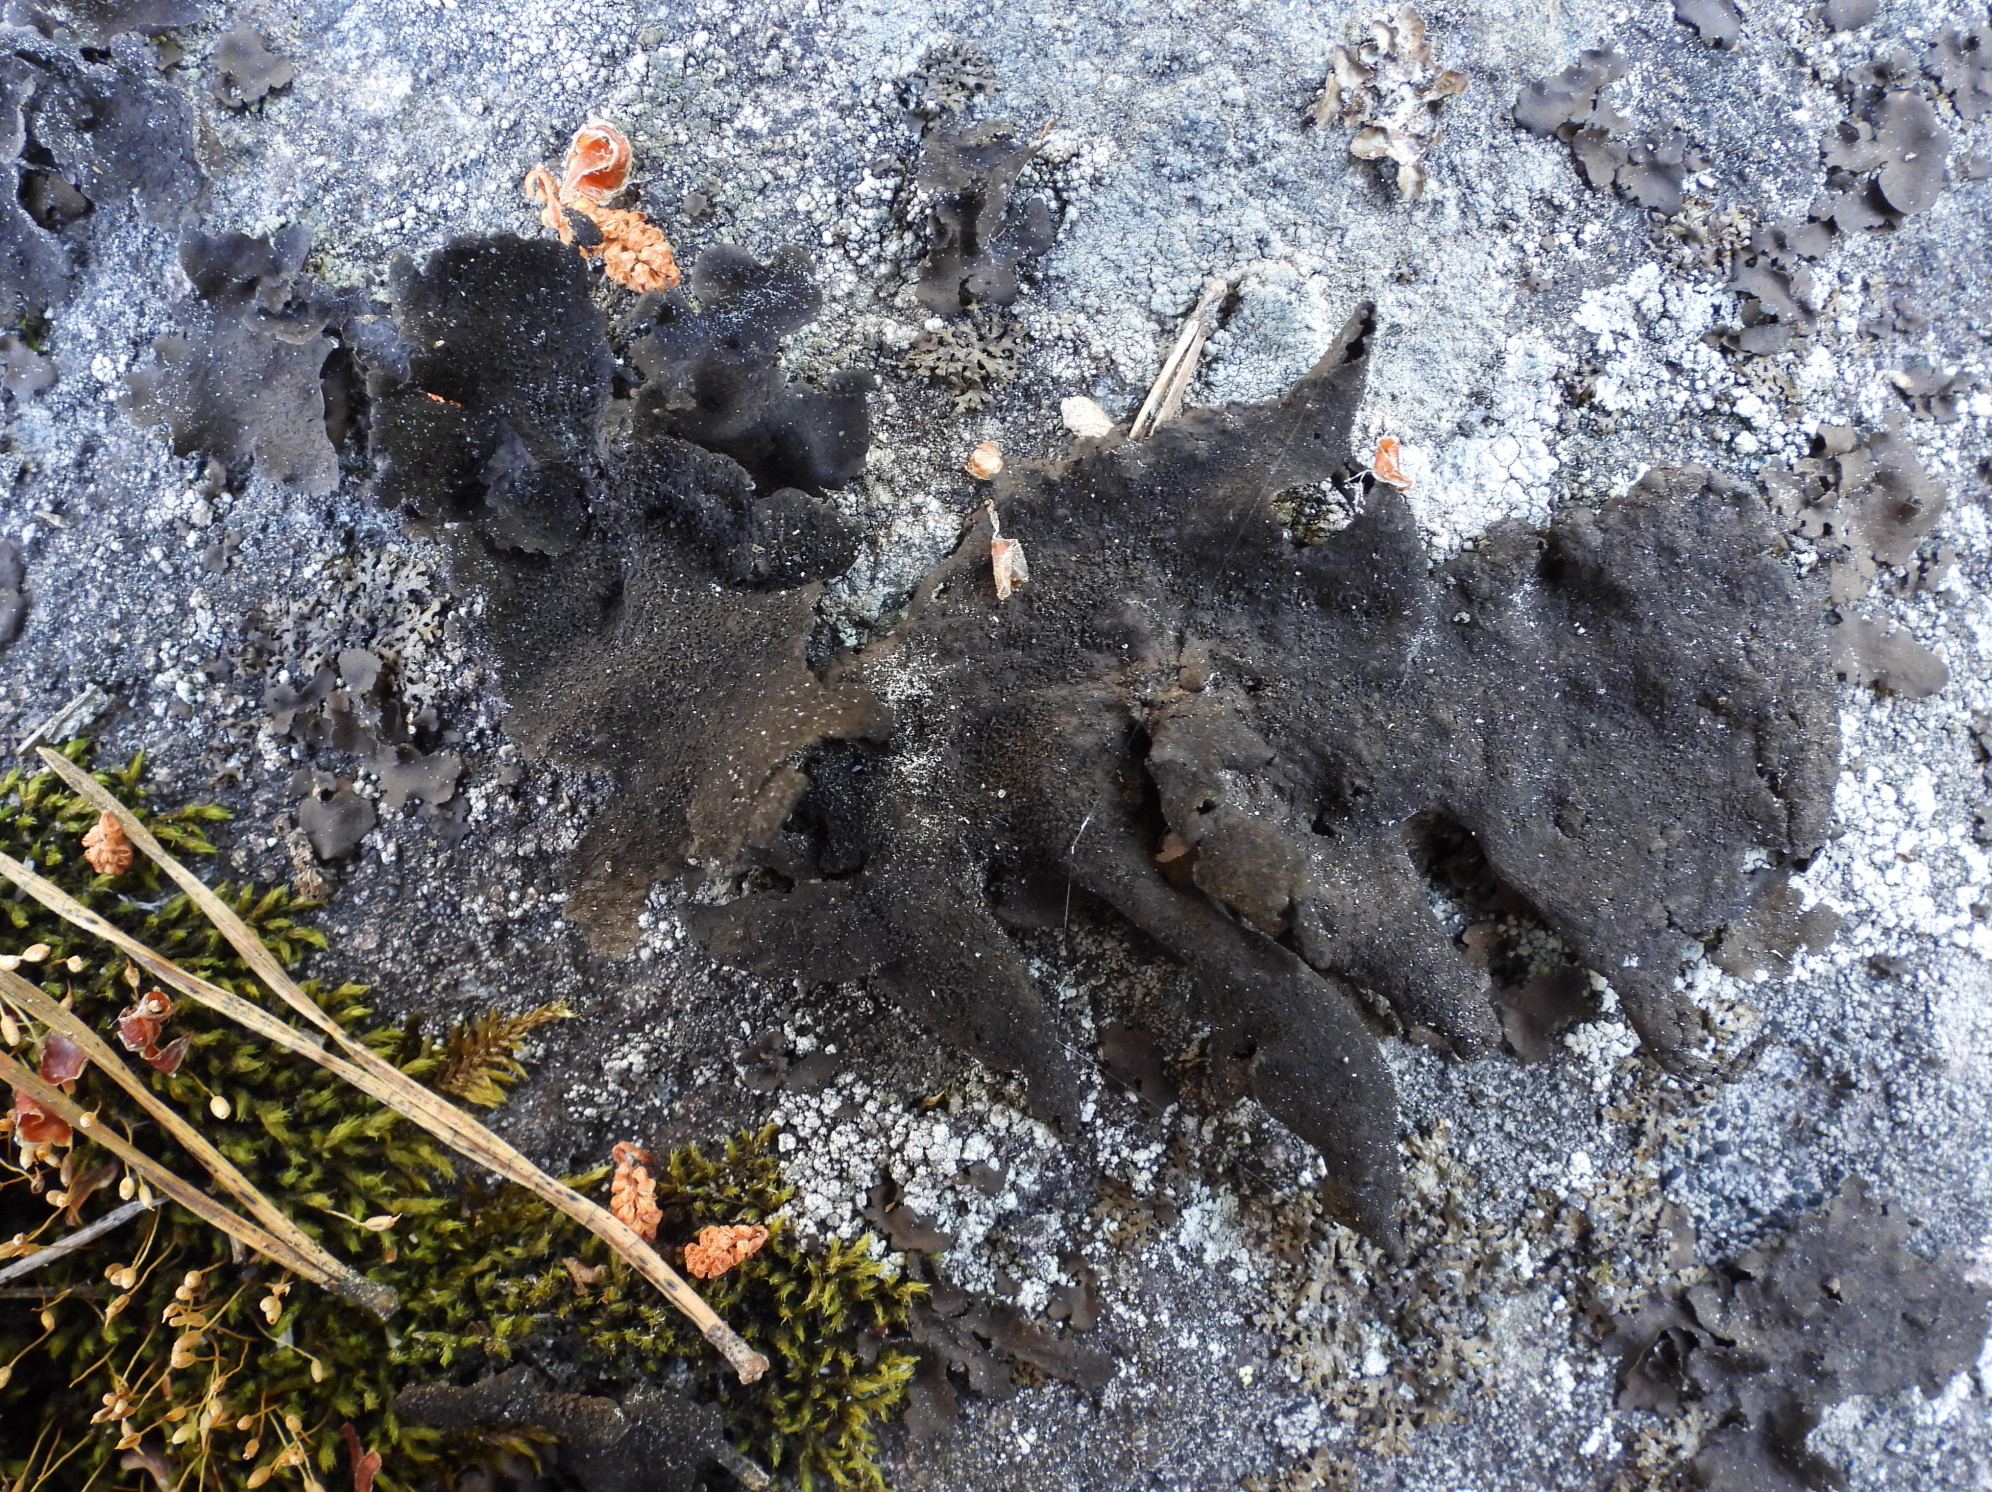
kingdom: Fungi
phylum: Ascomycota
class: Lecanoromycetes
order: Umbilicariales
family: Umbilicariaceae
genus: Umbilicaria
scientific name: Umbilicaria deusta
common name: Peppered rock tripe
